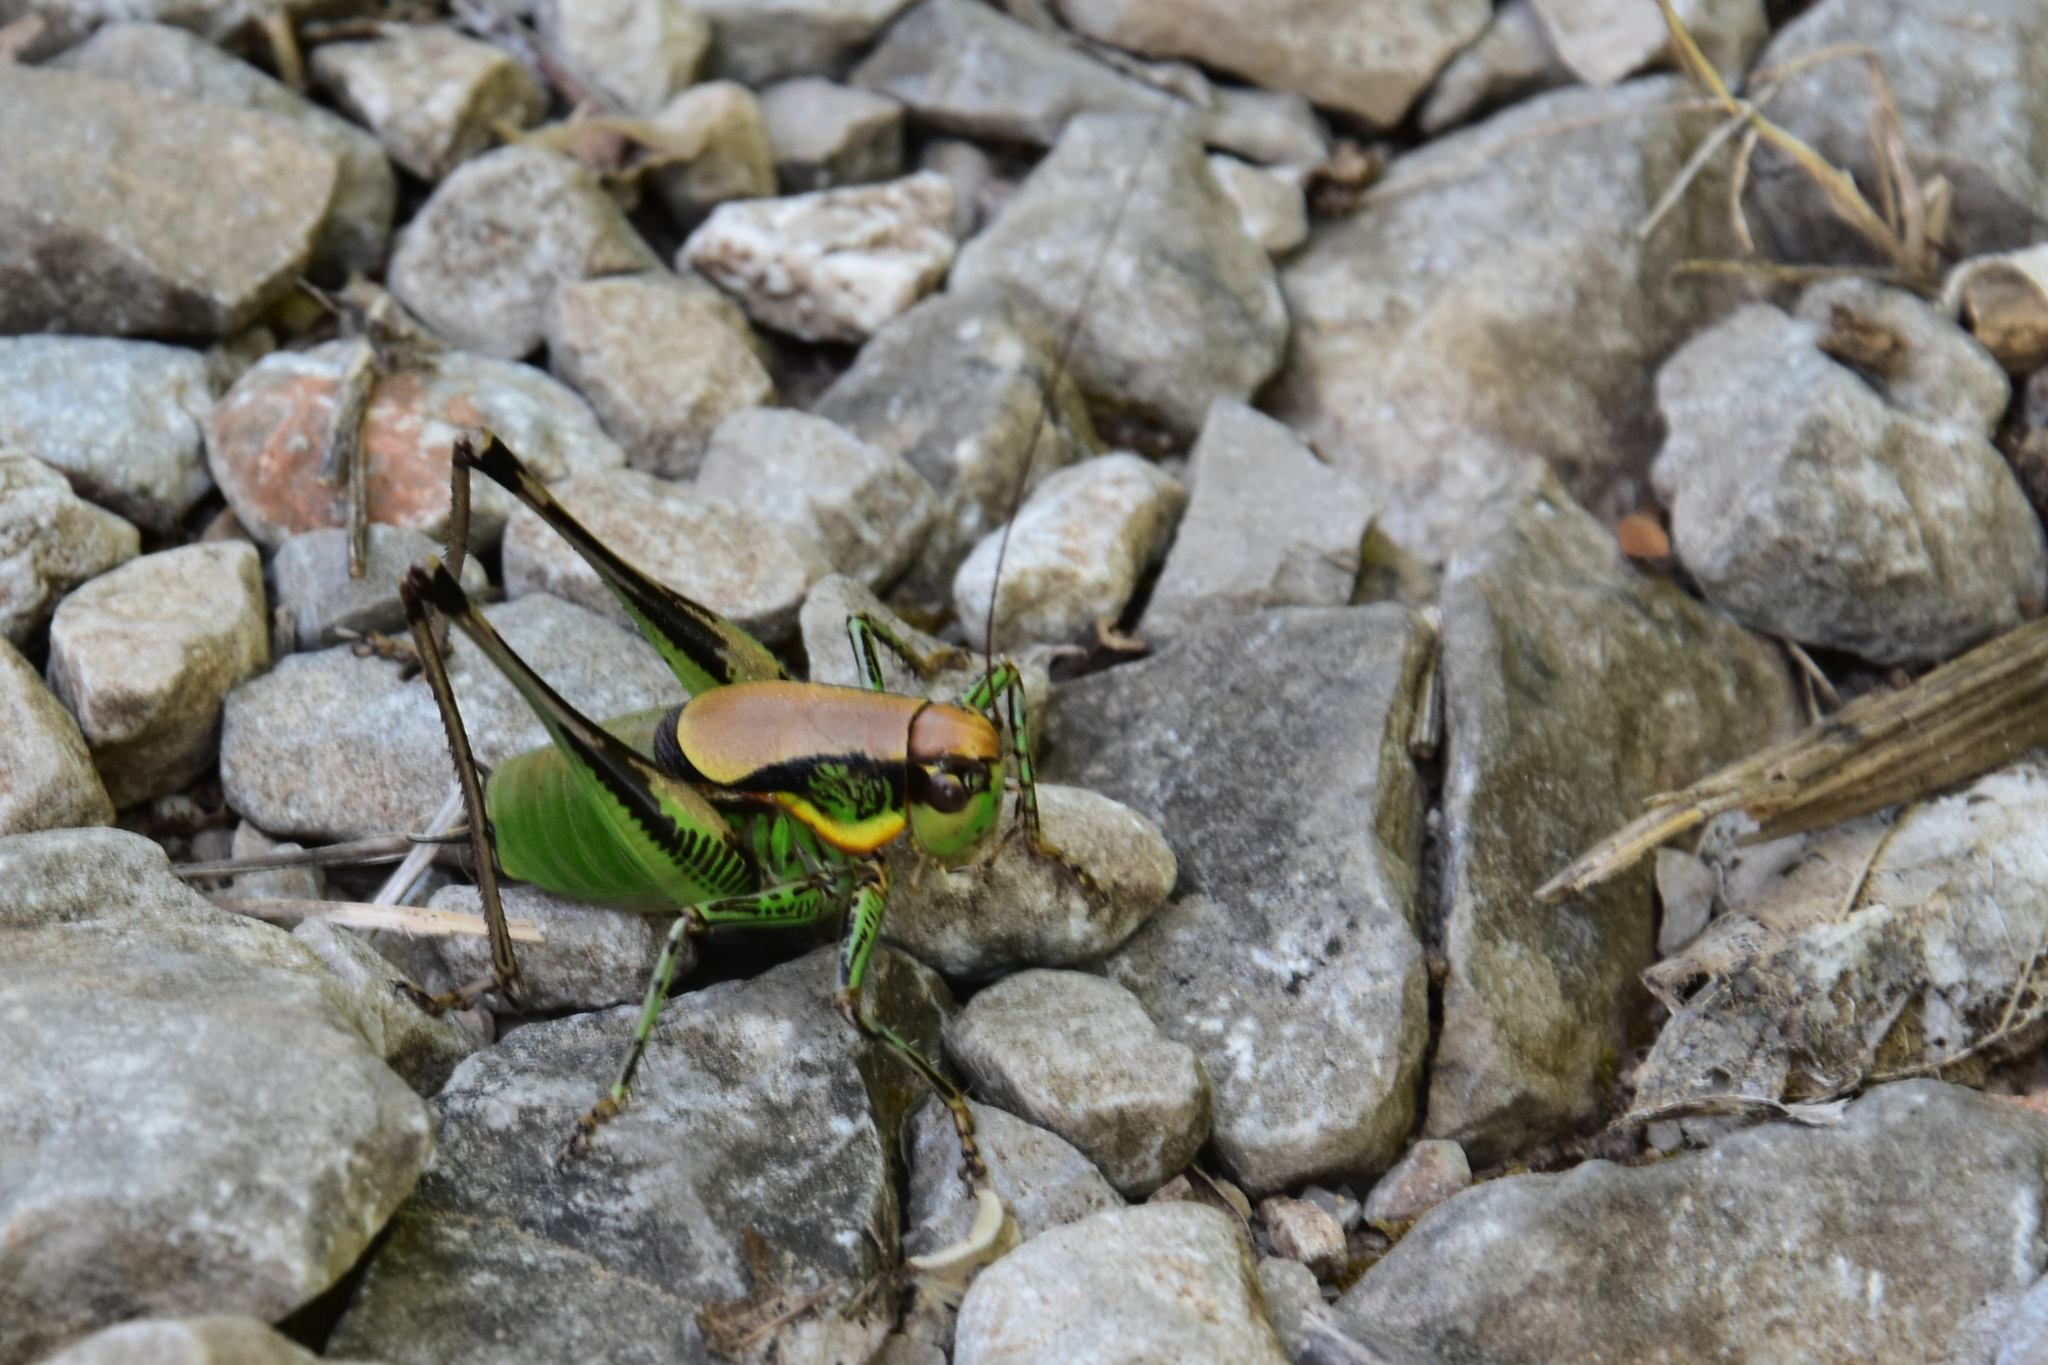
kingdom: Animalia
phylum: Arthropoda
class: Insecta
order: Orthoptera
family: Tettigoniidae
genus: Eupholidoptera
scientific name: Eupholidoptera schmidti
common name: Schmidt's marbled bush-cricket
